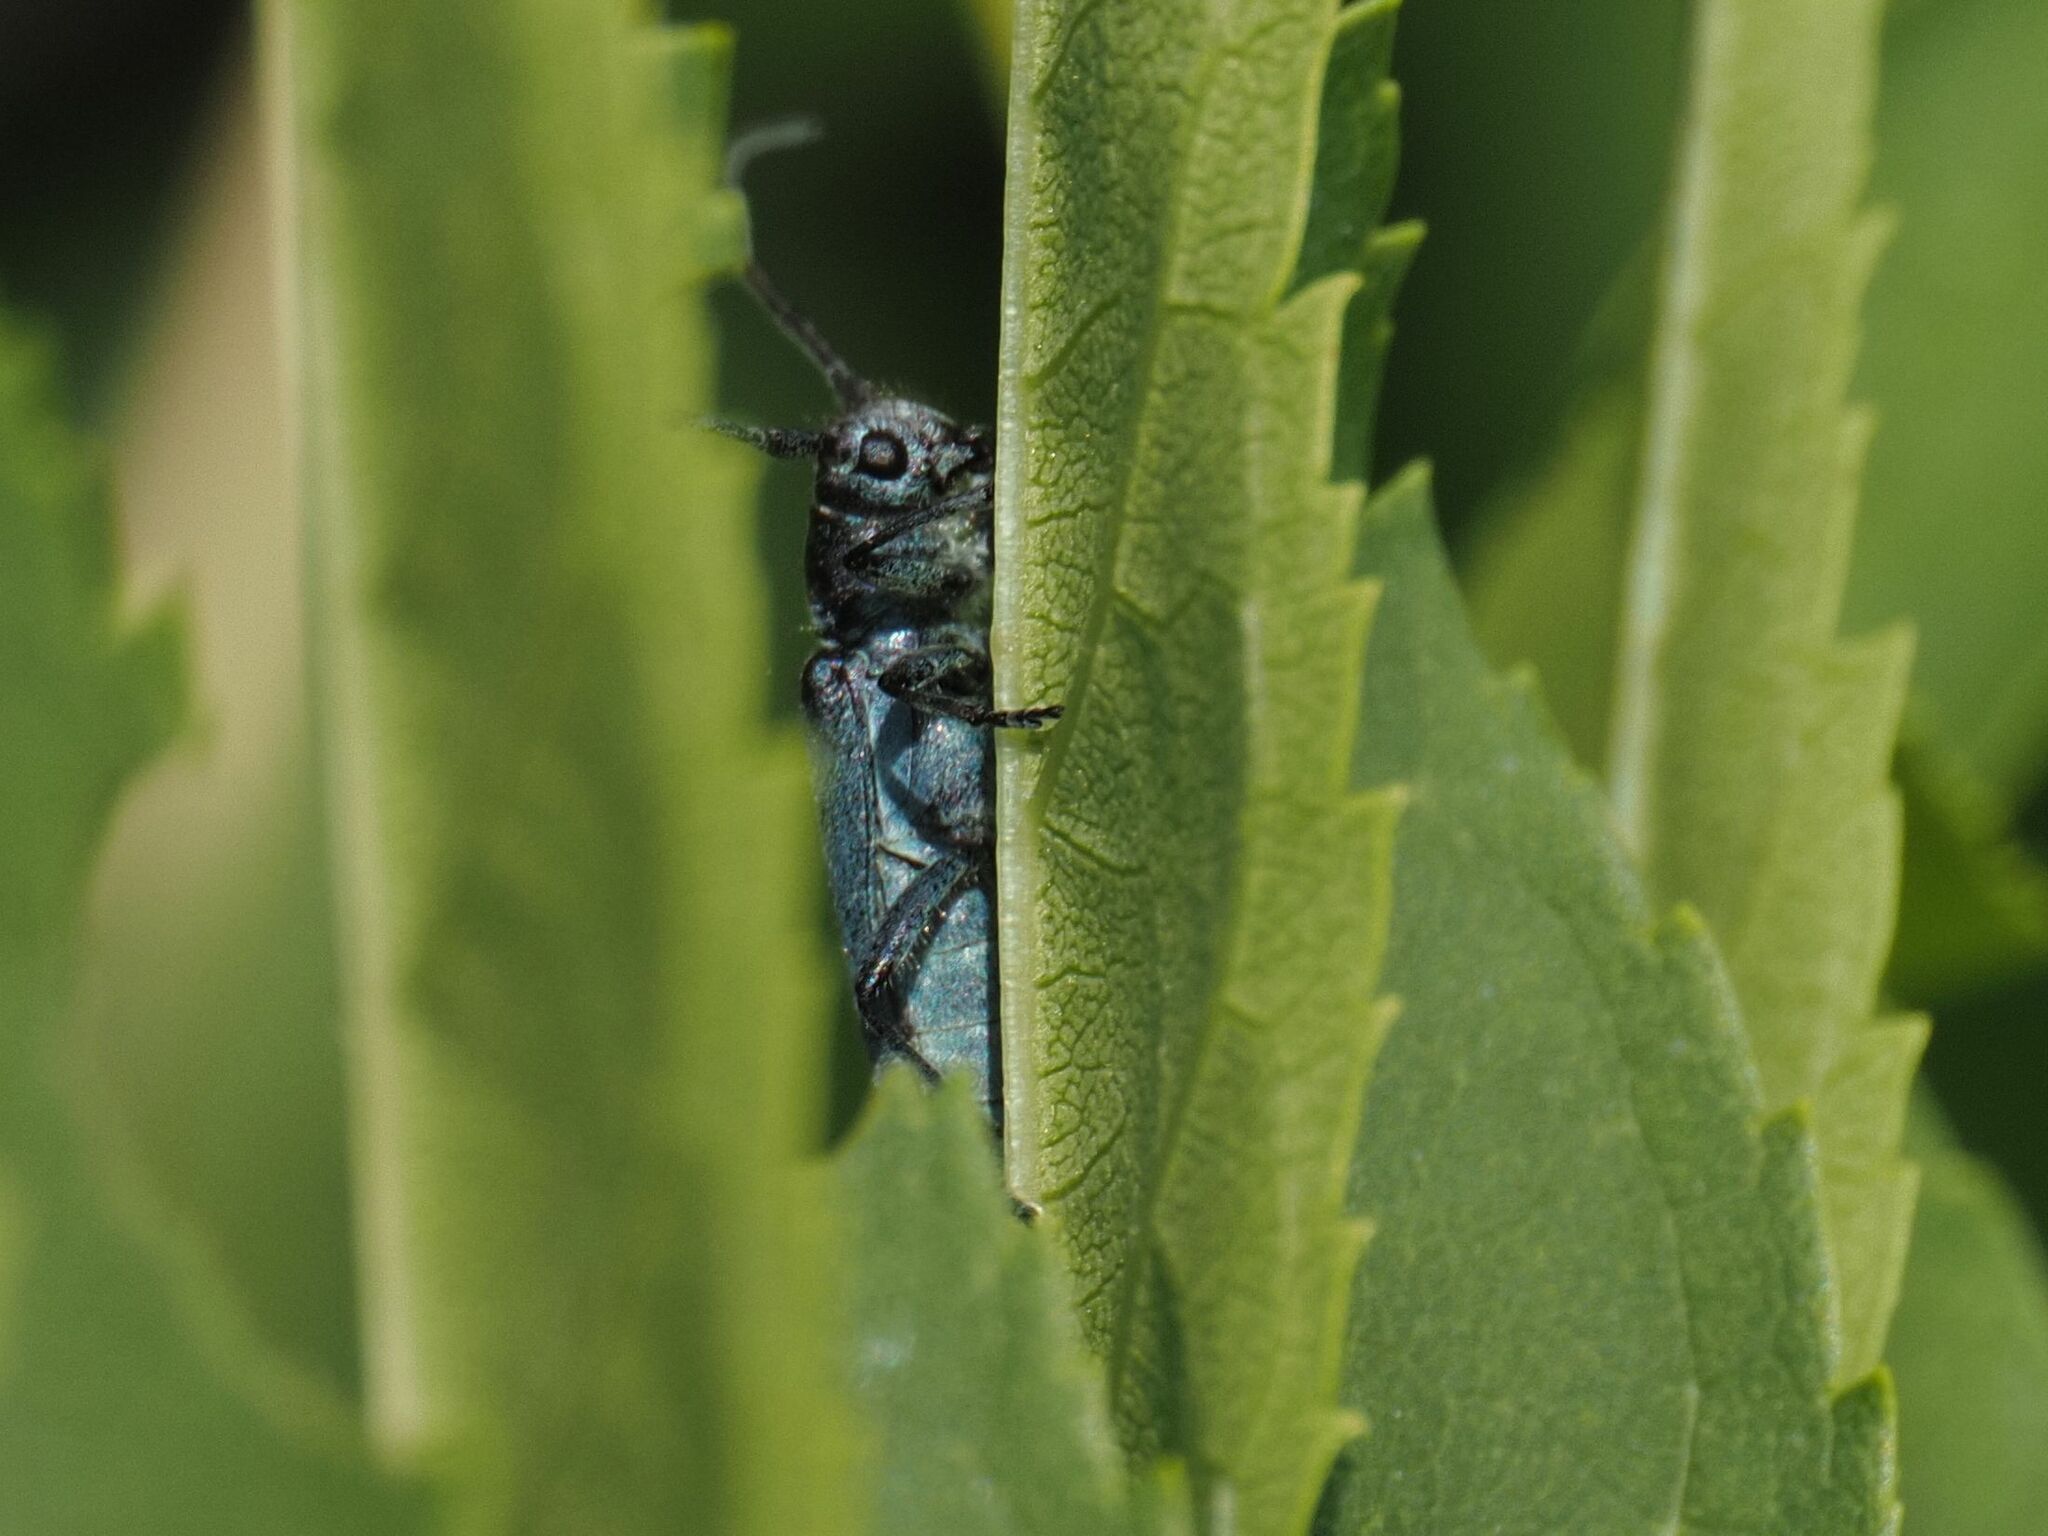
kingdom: Animalia
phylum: Arthropoda
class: Insecta
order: Coleoptera
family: Cerambycidae
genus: Phytoecia
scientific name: Phytoecia coerulescens
